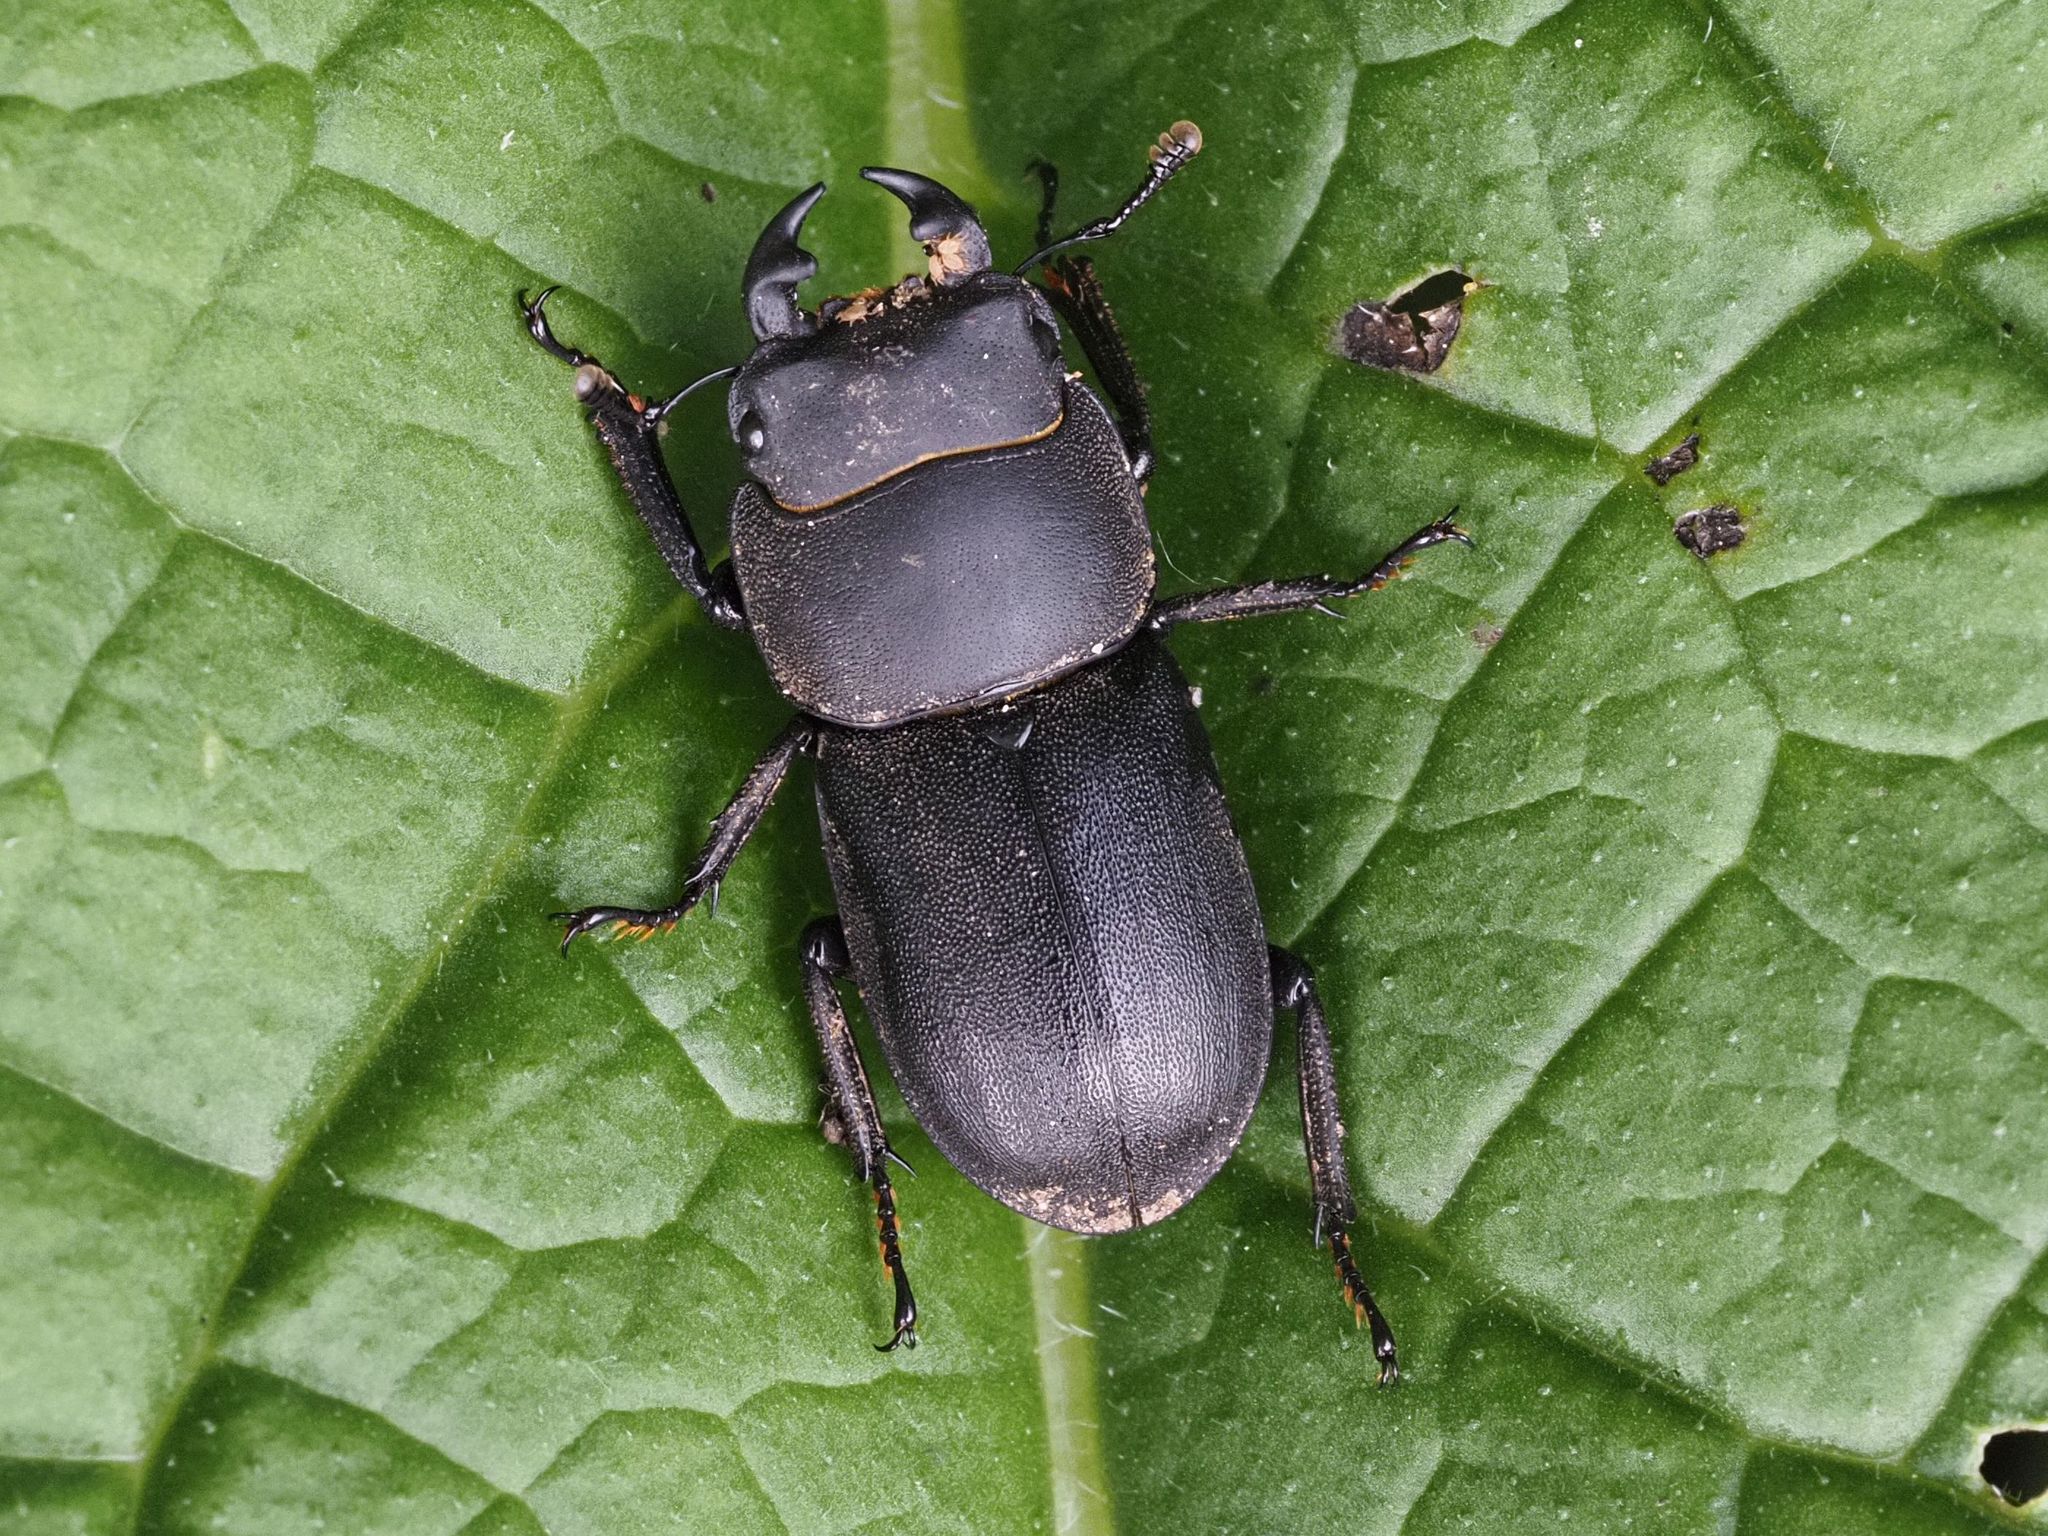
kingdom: Animalia
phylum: Arthropoda
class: Insecta
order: Coleoptera
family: Lucanidae
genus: Dorcus
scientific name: Dorcus parallelipipedus
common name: Lesser stag beetle
